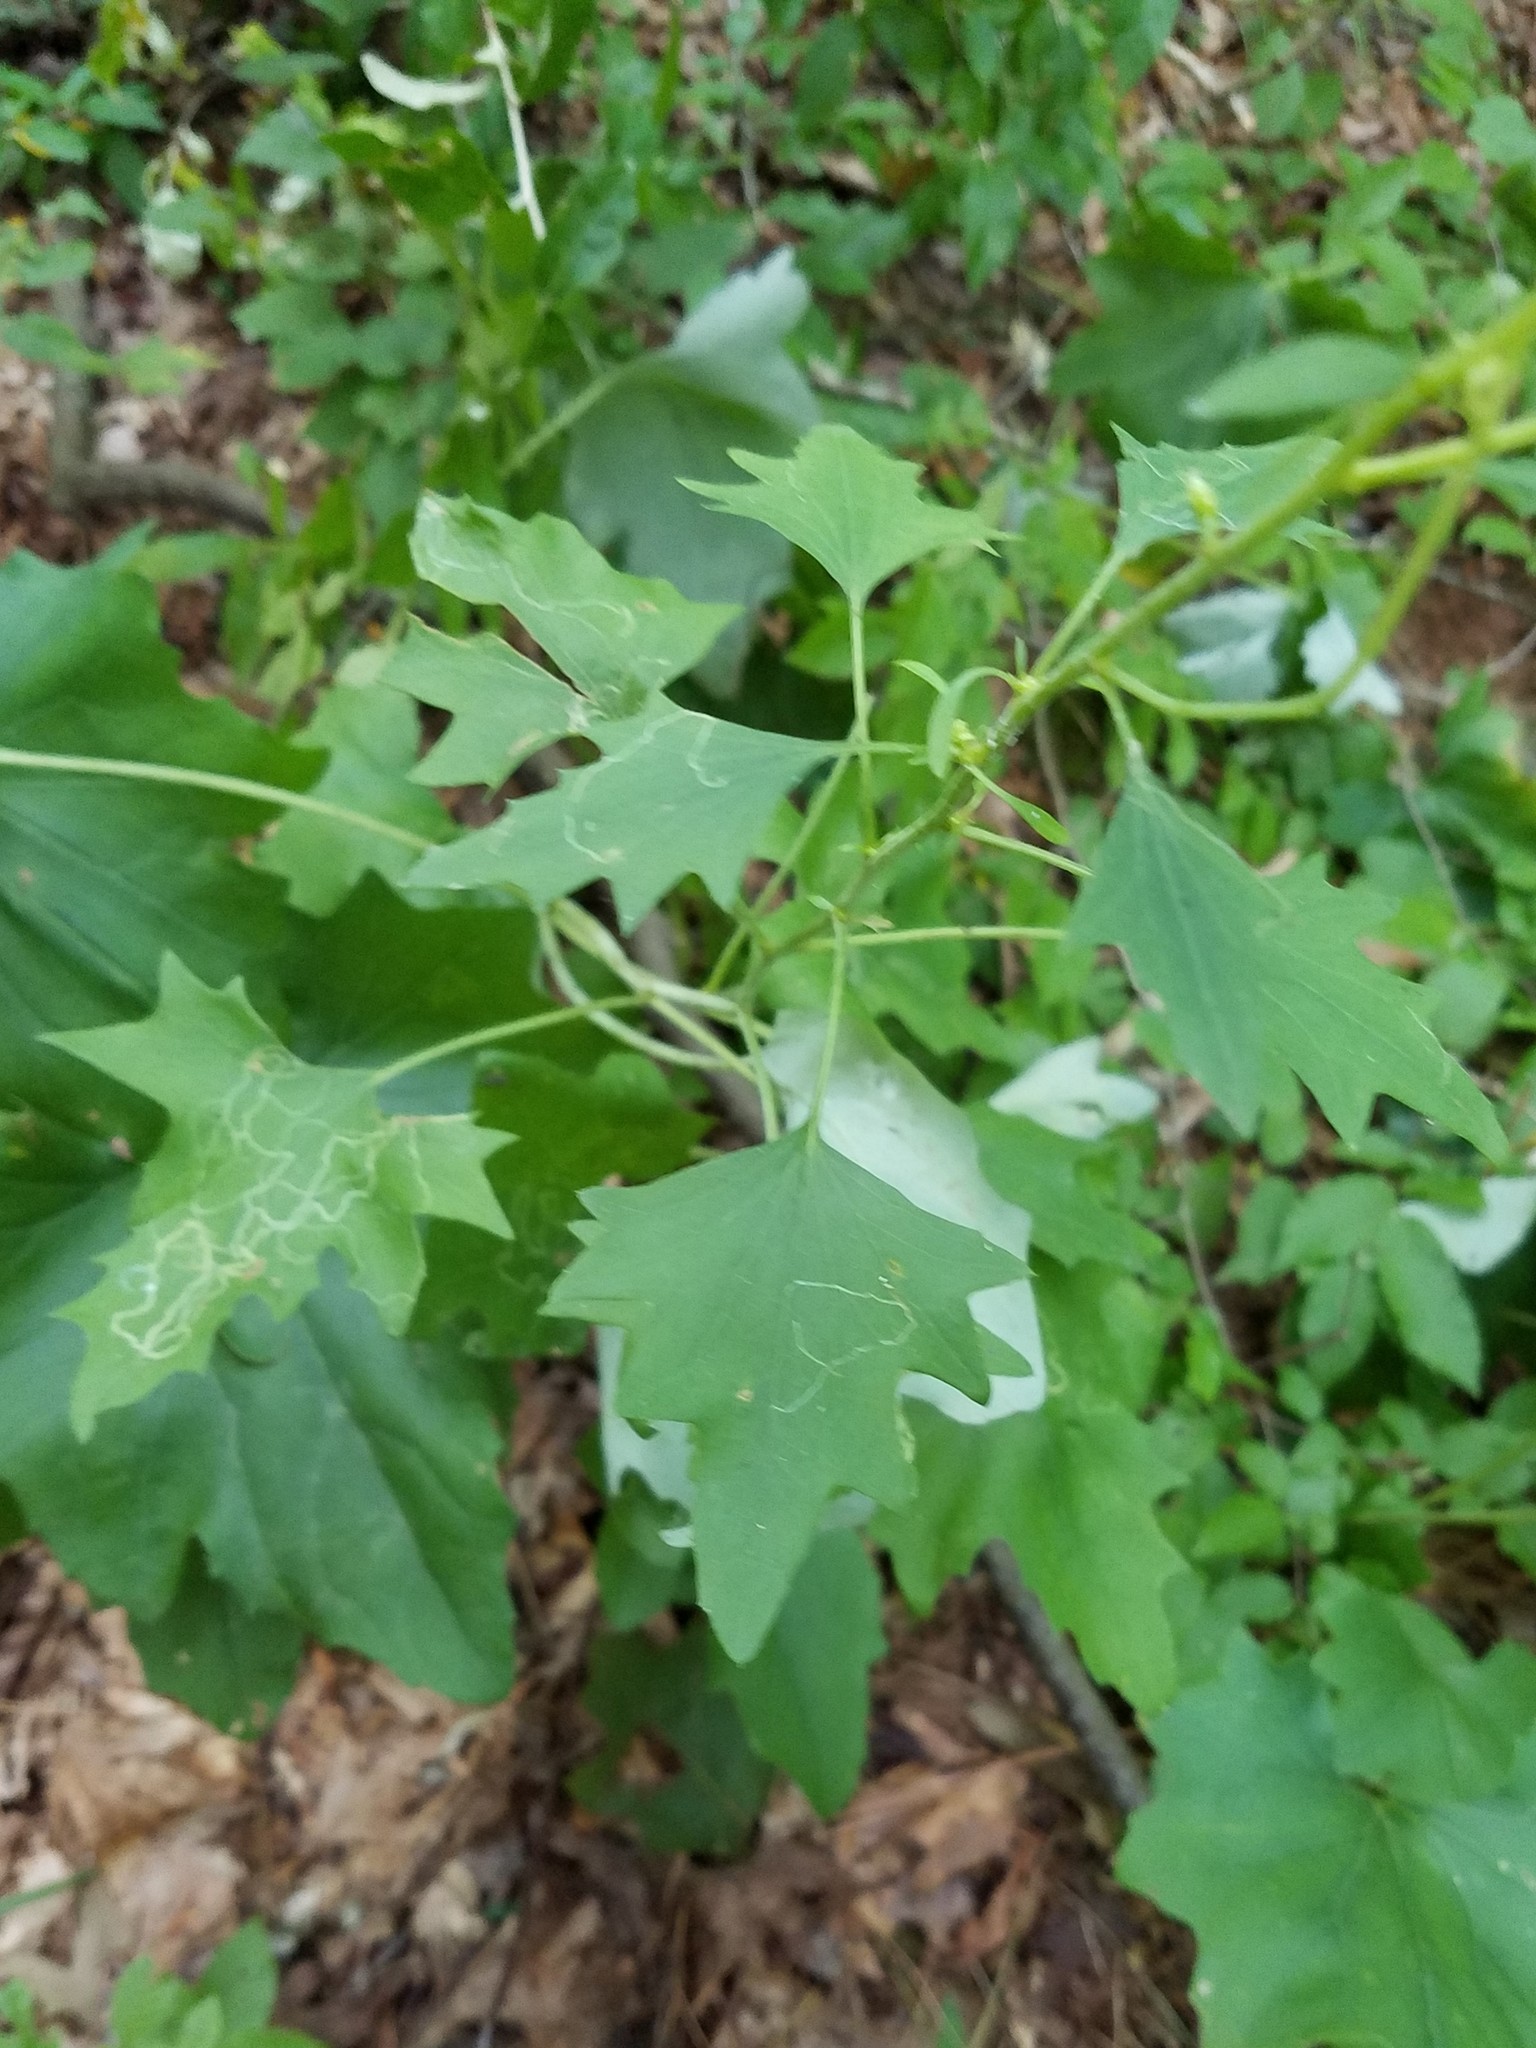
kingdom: Plantae
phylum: Tracheophyta
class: Magnoliopsida
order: Asterales
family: Asteraceae
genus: Arnoglossum
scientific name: Arnoglossum atriplicifolium
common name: Pale indian-plantain
